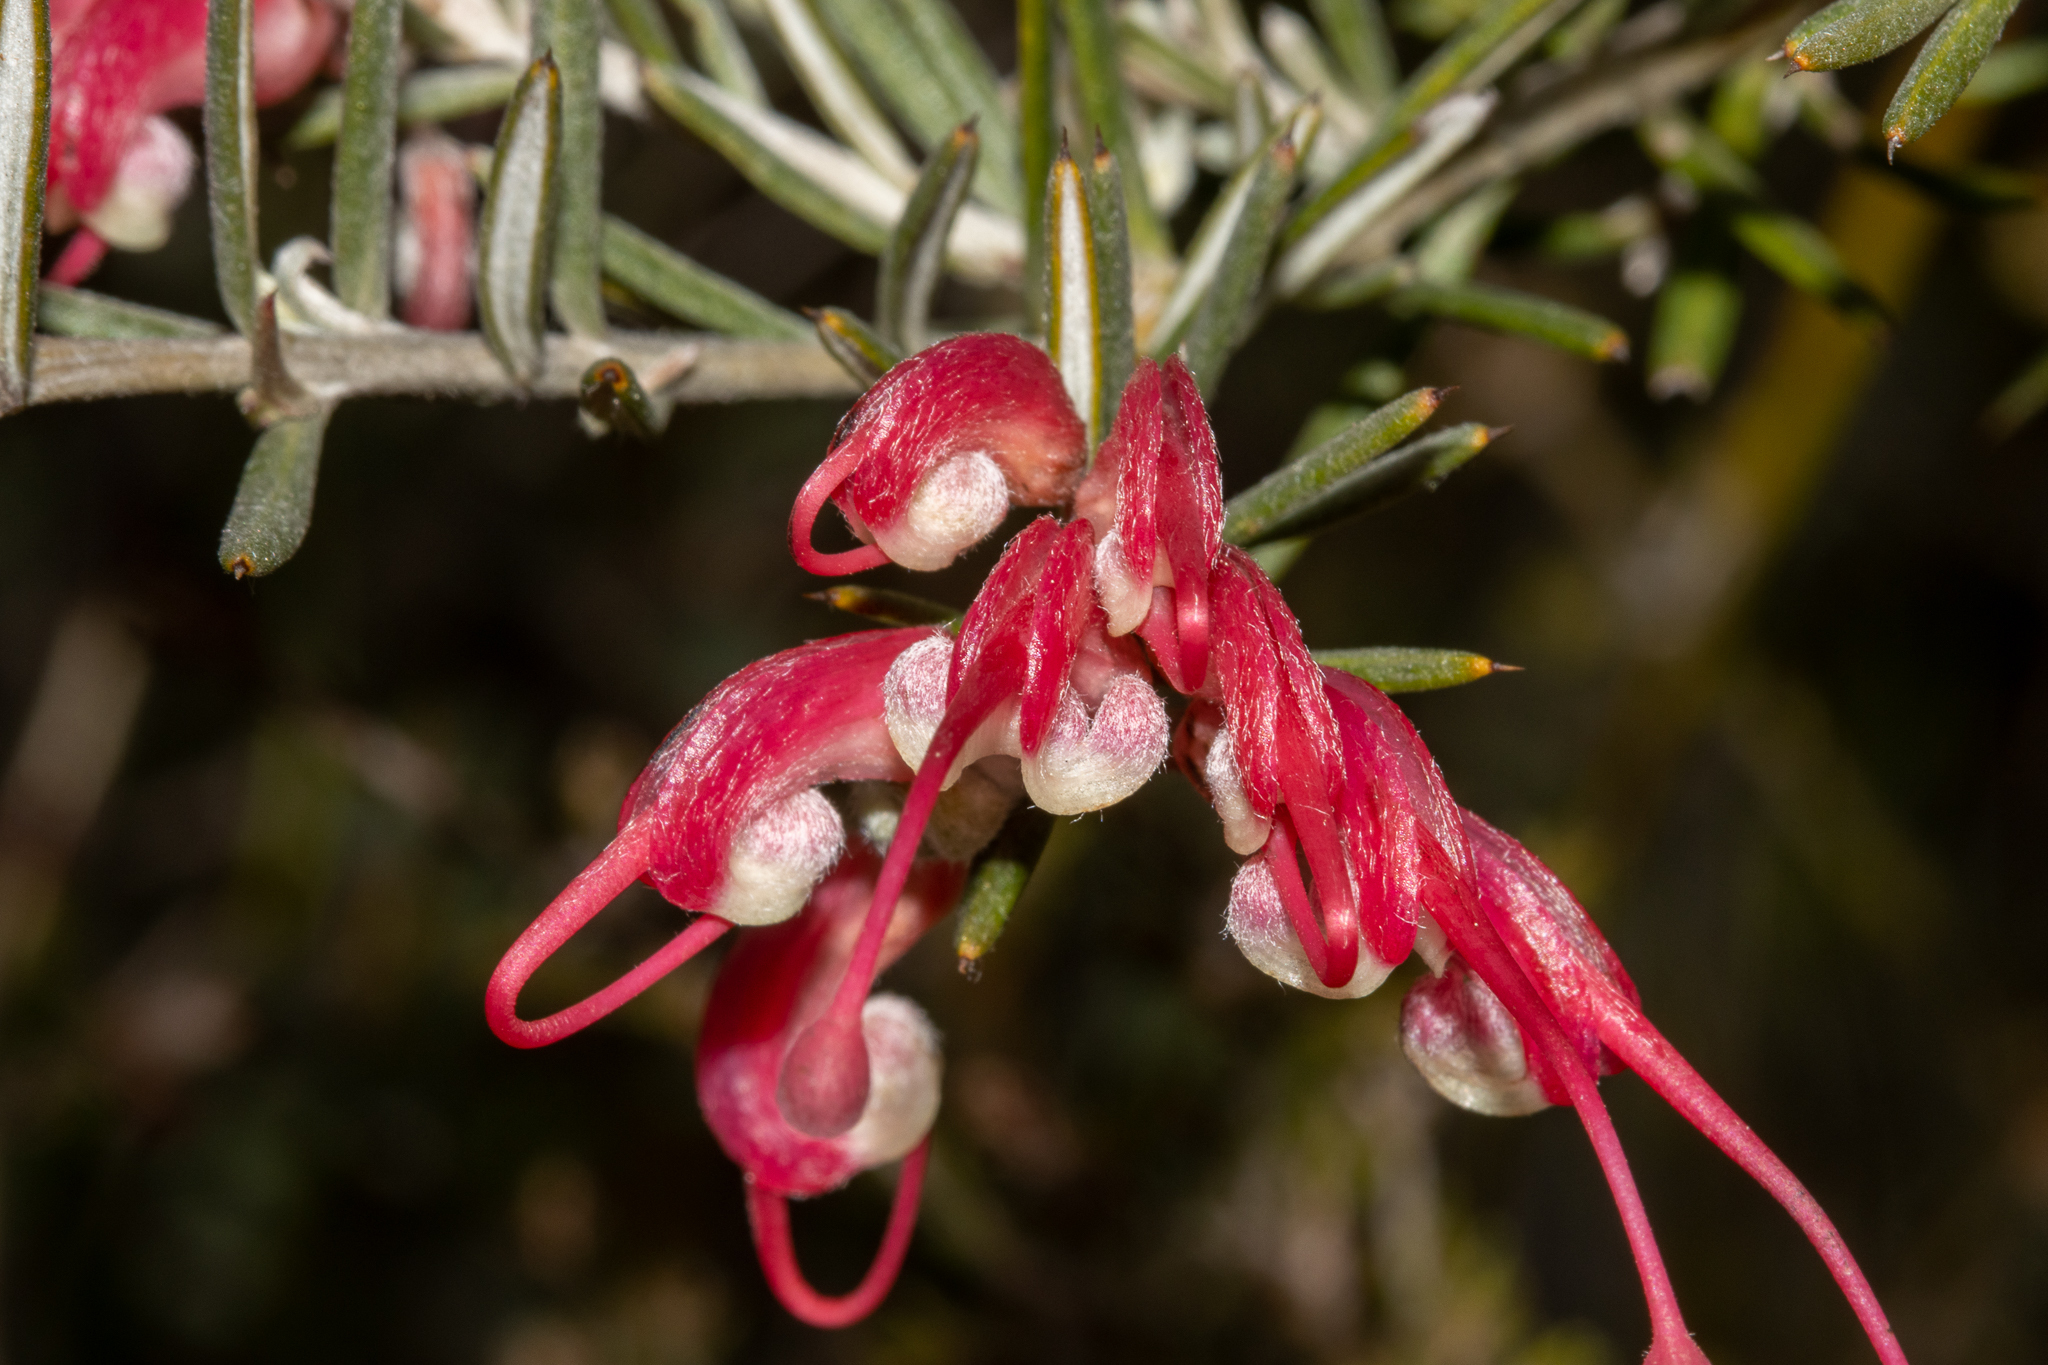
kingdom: Plantae
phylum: Tracheophyta
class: Magnoliopsida
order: Proteales
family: Proteaceae
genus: Grevillea
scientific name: Grevillea lavandulacea
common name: Lavender grevillea
